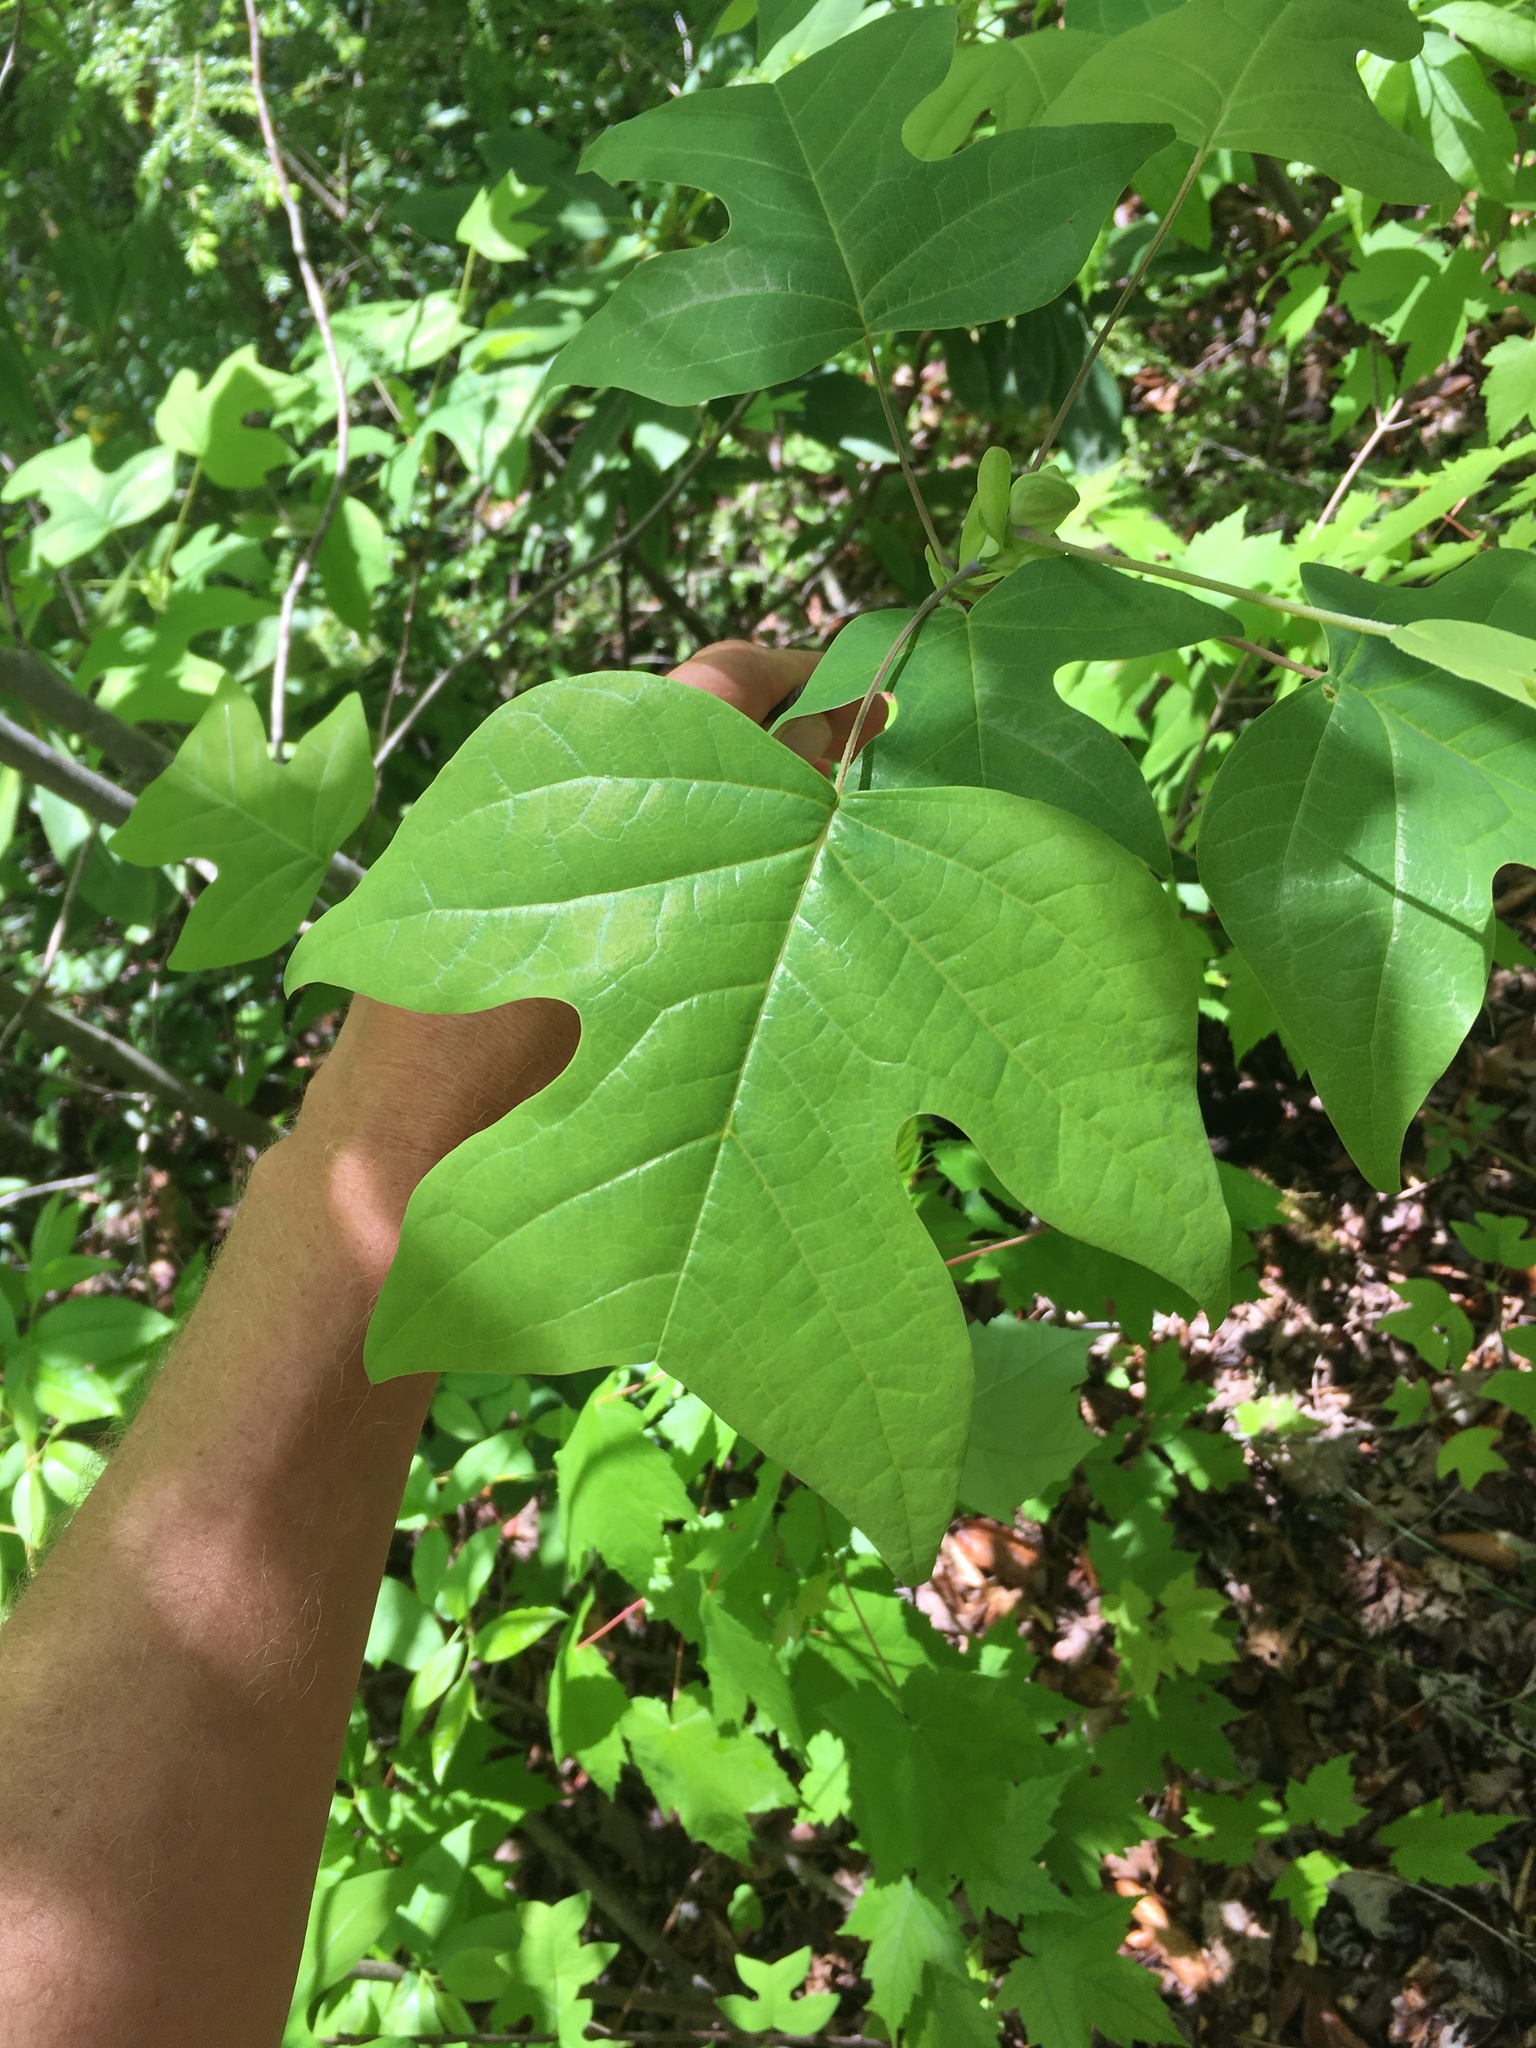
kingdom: Plantae
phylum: Tracheophyta
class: Magnoliopsida
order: Magnoliales
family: Magnoliaceae
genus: Liriodendron
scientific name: Liriodendron tulipifera
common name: Tulip tree
